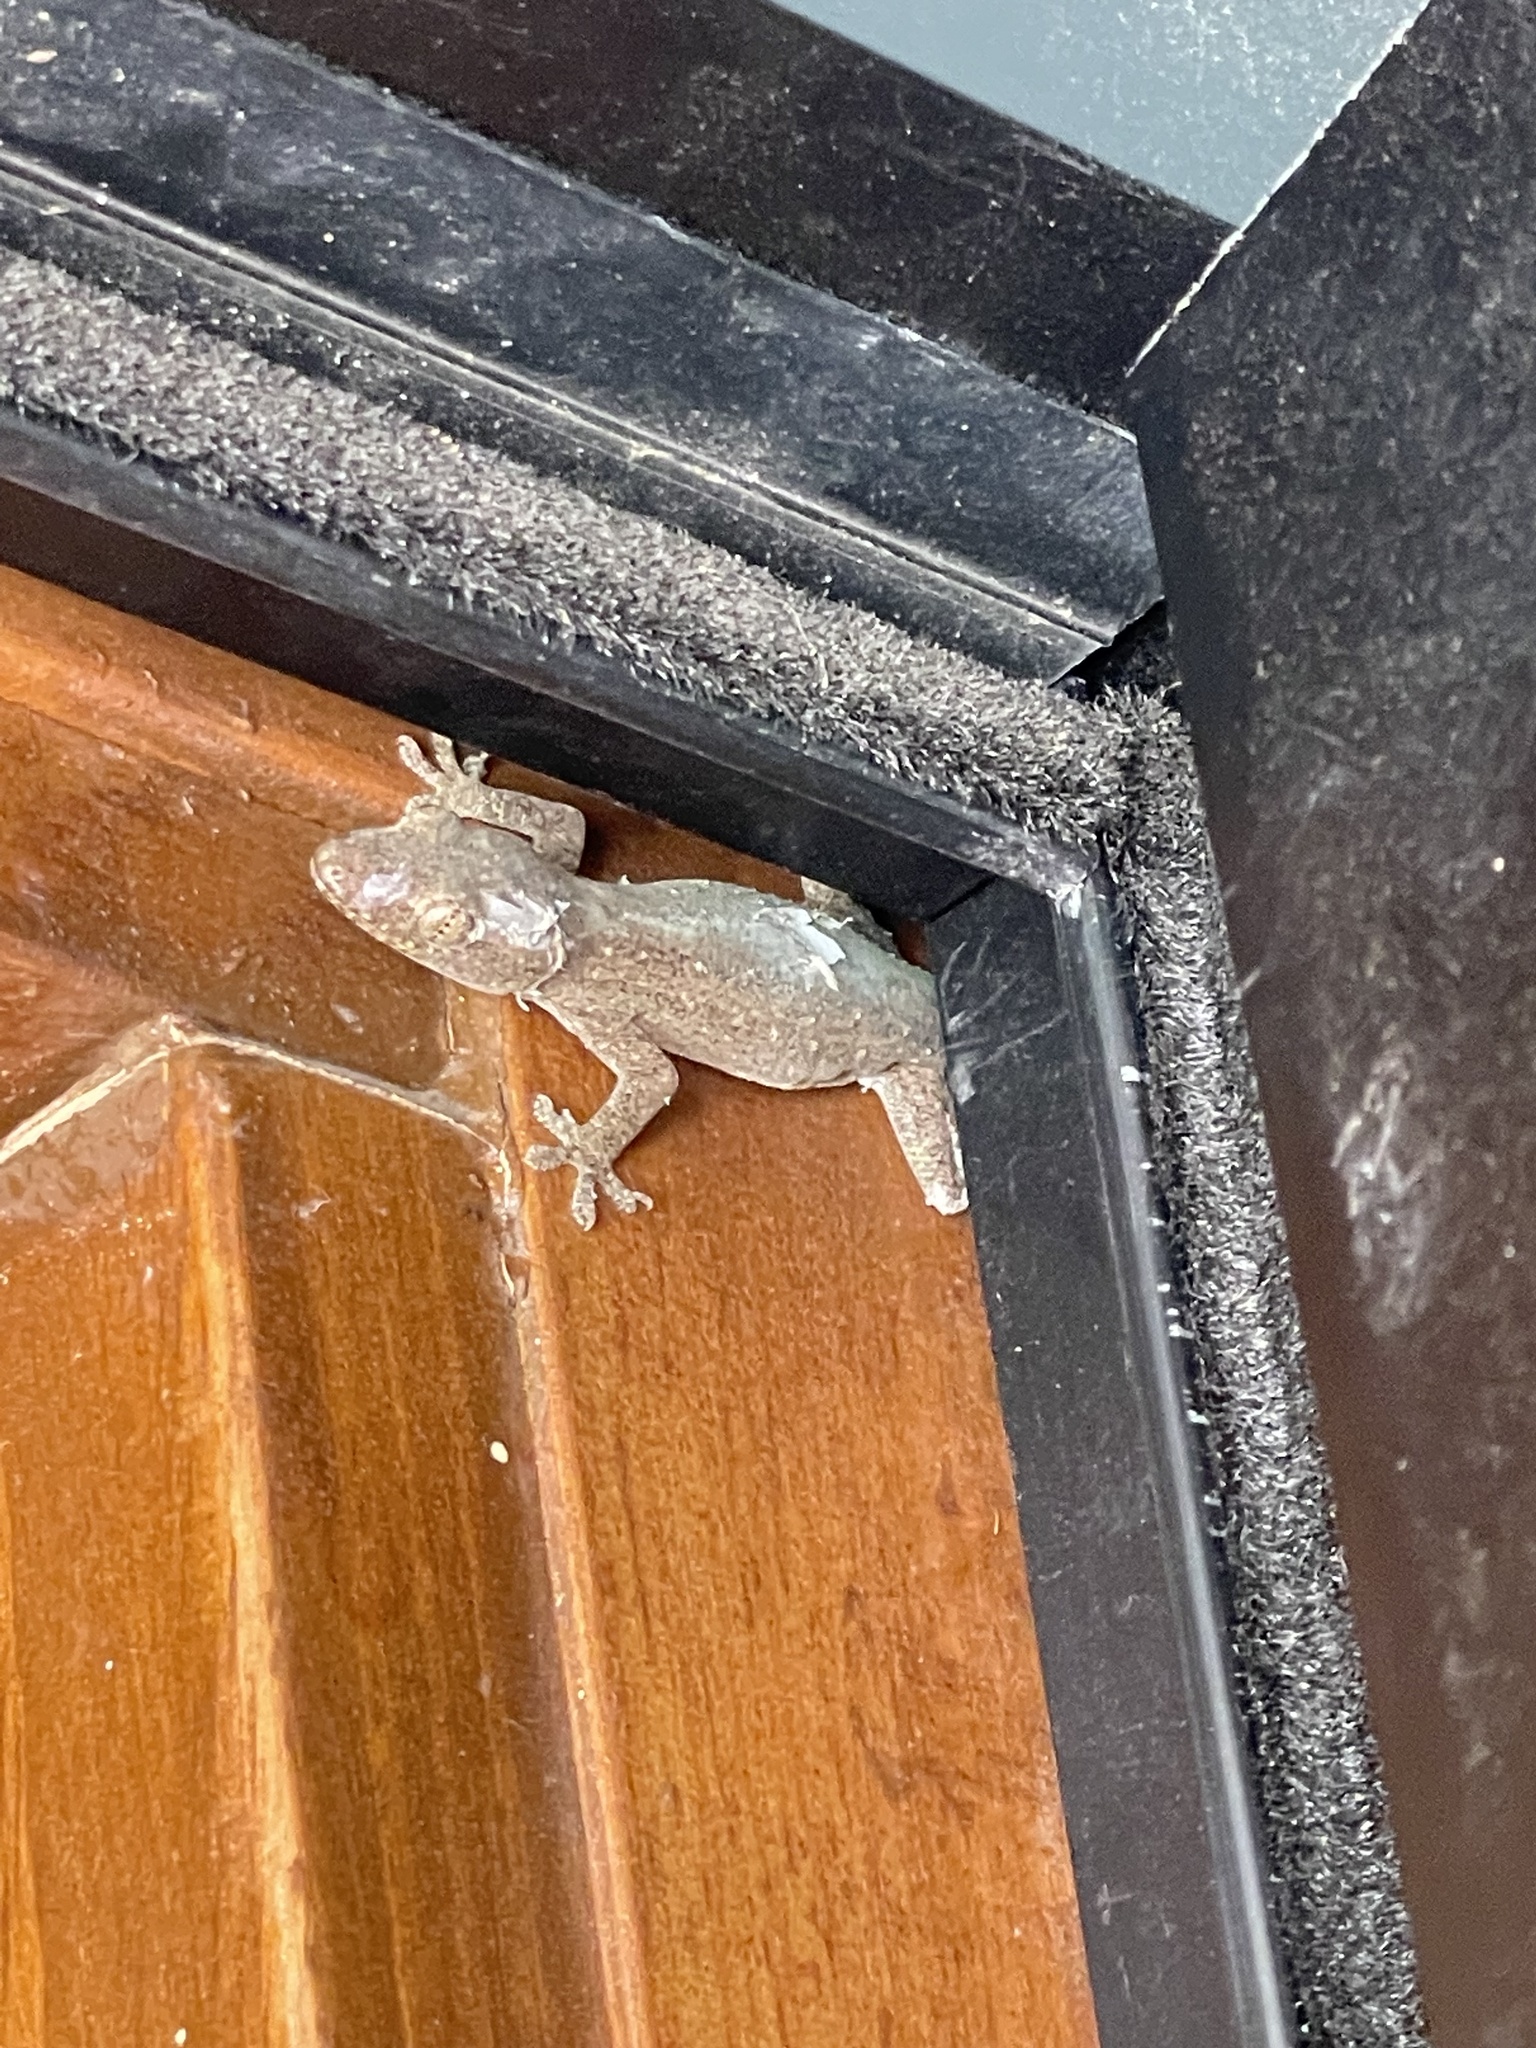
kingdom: Animalia
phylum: Chordata
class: Squamata
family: Gekkonidae
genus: Hemidactylus
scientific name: Hemidactylus frenatus
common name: Common house gecko
